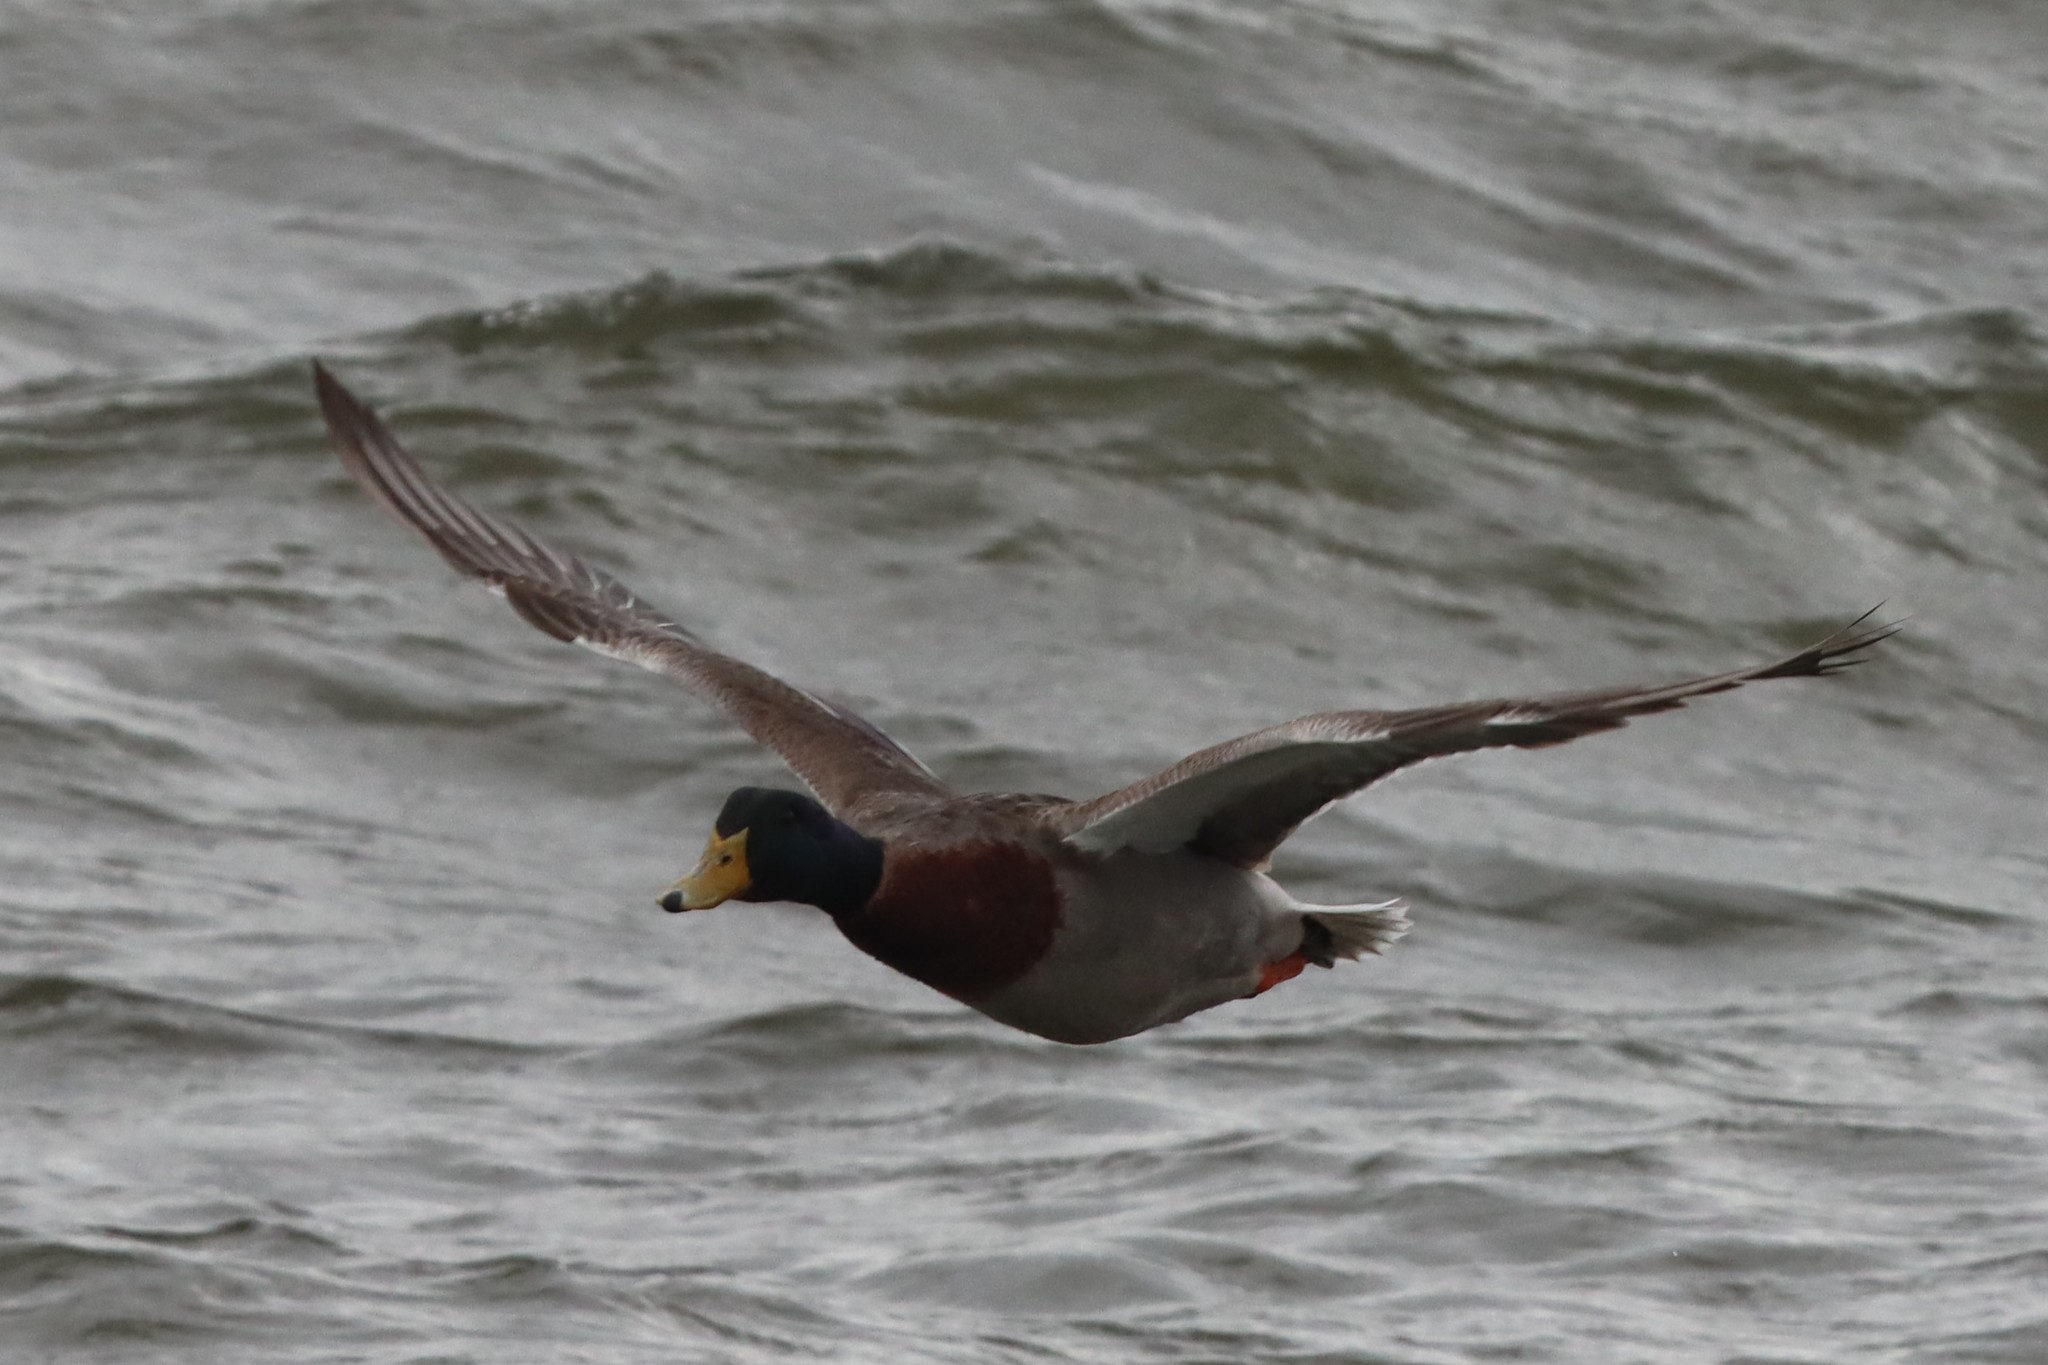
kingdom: Animalia
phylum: Chordata
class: Aves
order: Anseriformes
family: Anatidae
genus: Anas
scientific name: Anas platyrhynchos
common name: Mallard
